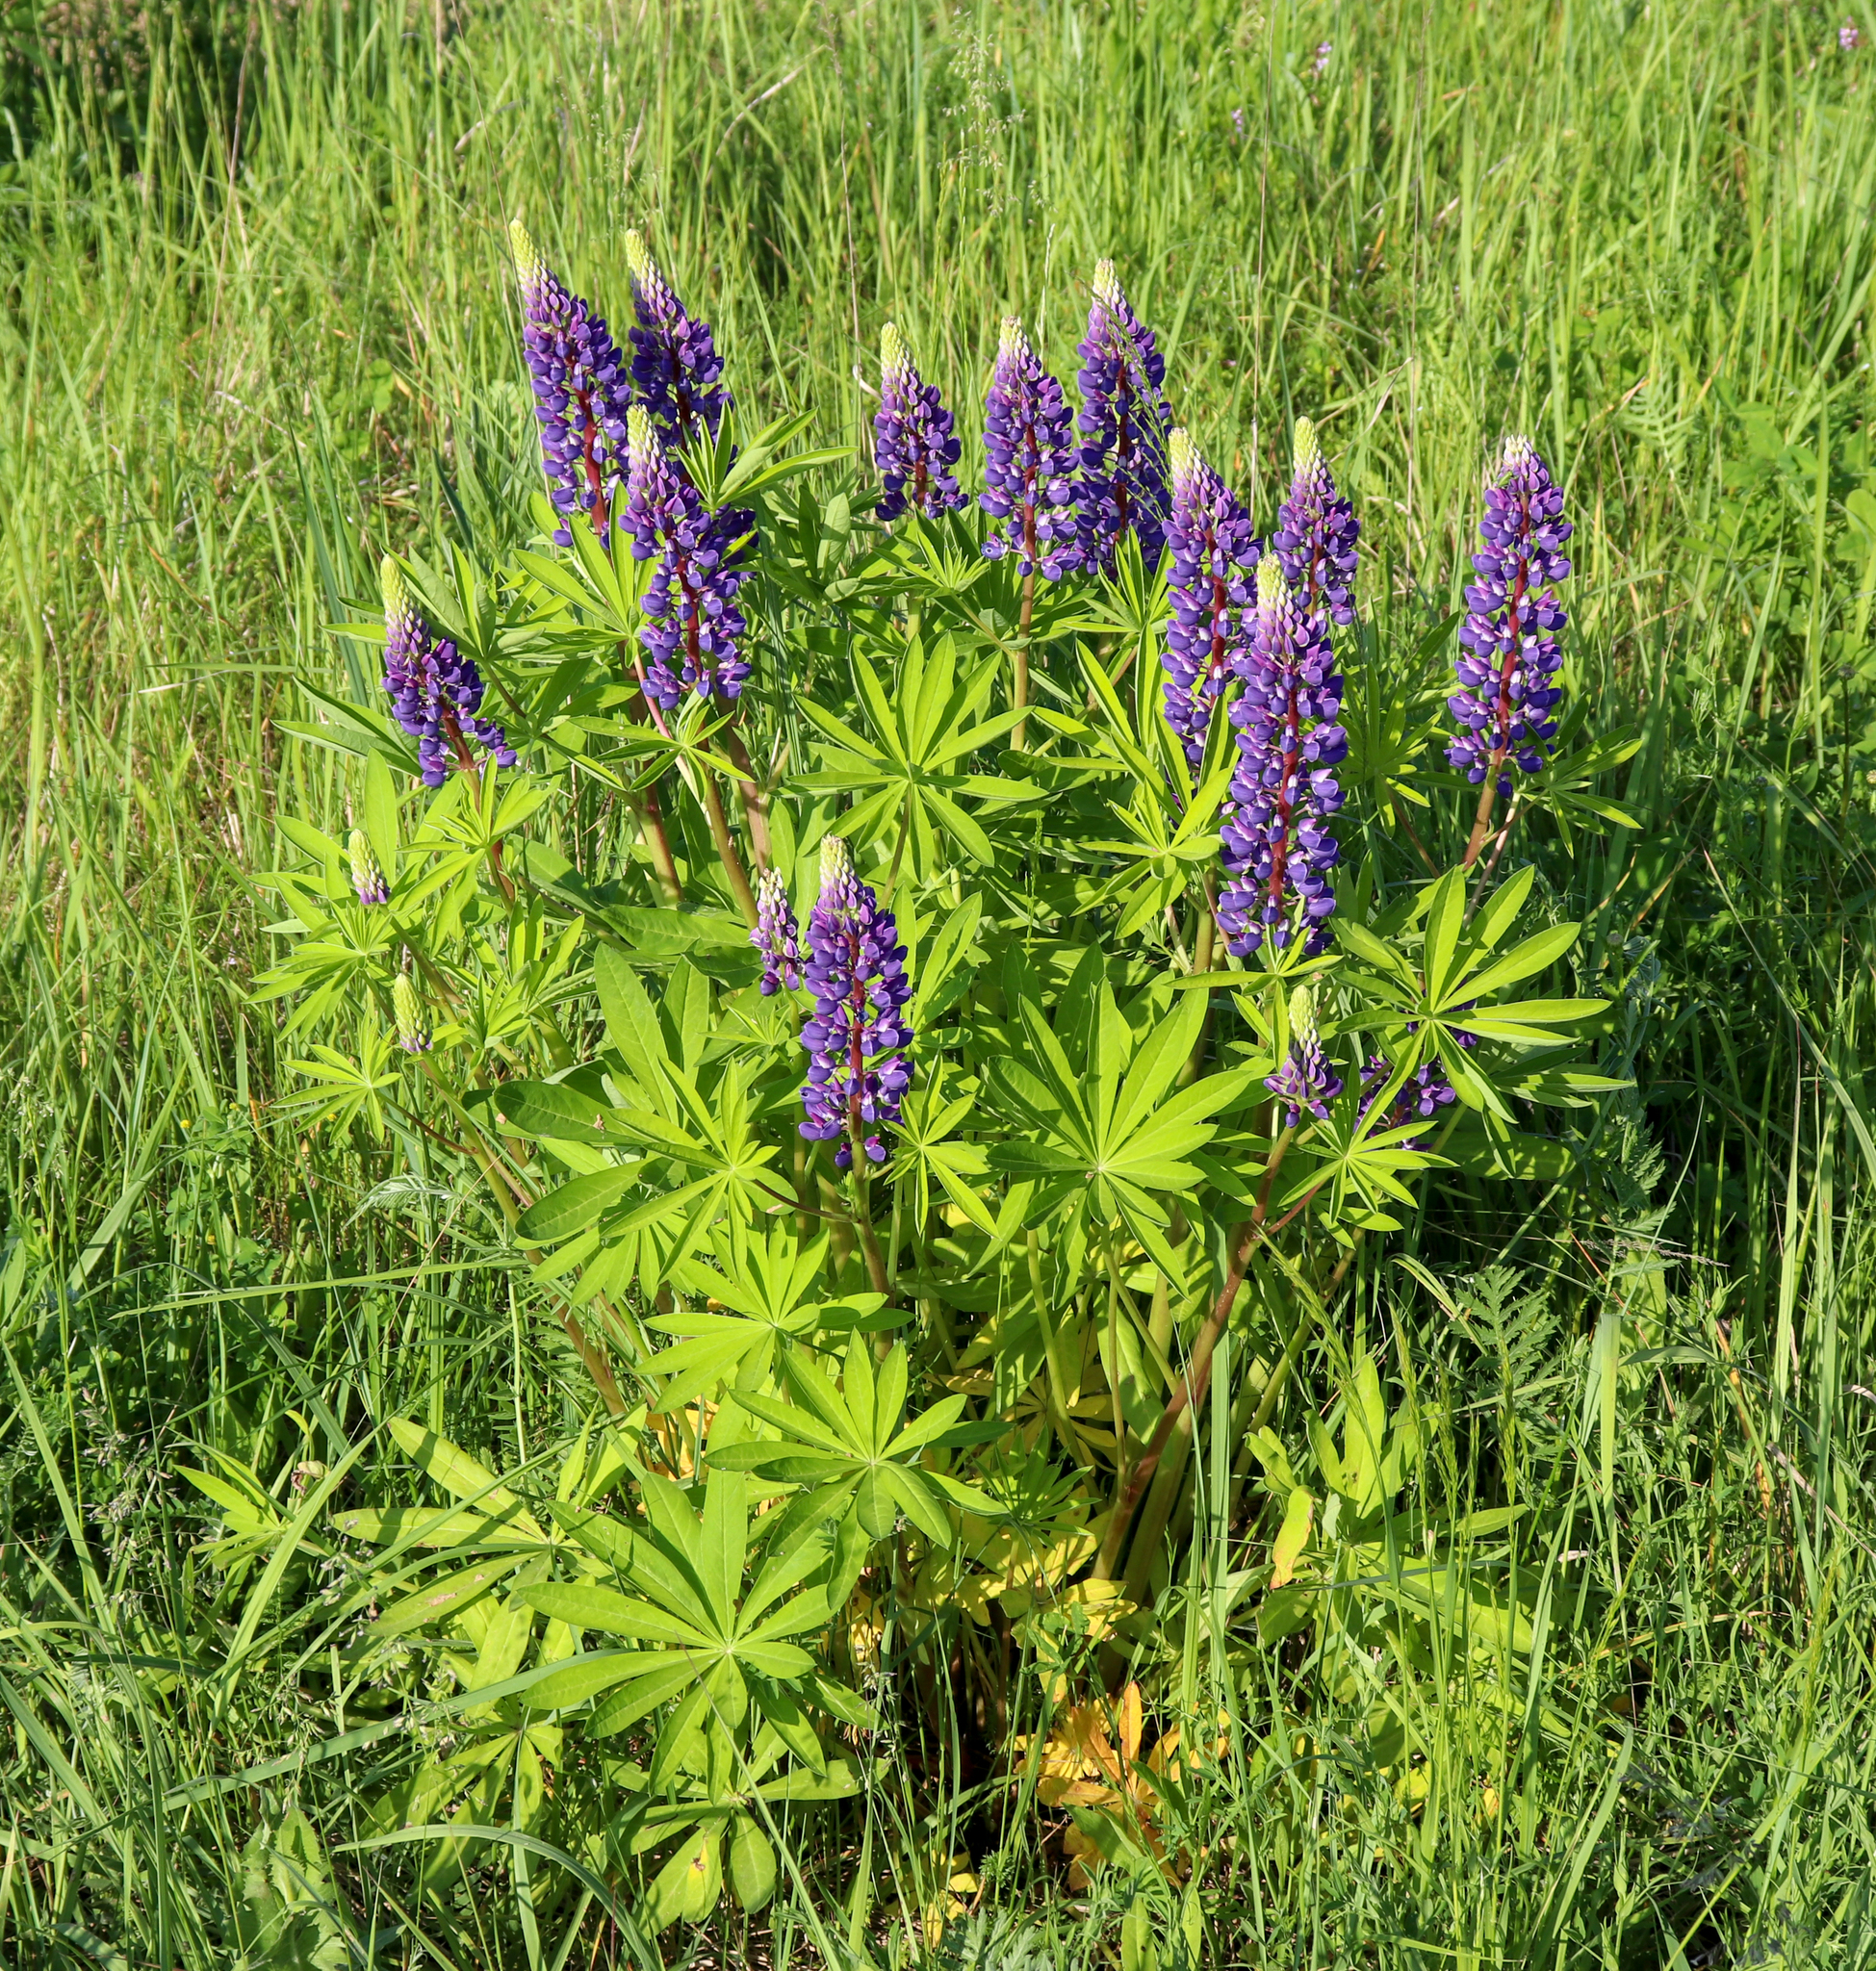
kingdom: Plantae
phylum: Tracheophyta
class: Magnoliopsida
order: Fabales
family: Fabaceae
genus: Lupinus
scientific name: Lupinus polyphyllus
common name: Garden lupin
